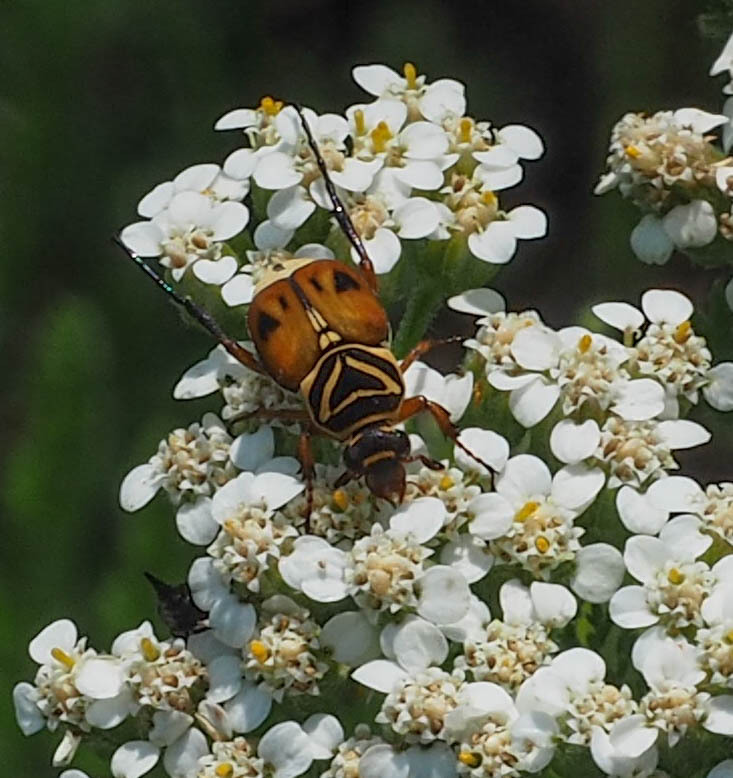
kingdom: Animalia
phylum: Arthropoda
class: Insecta
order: Coleoptera
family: Scarabaeidae
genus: Trigonopeltastes
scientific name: Trigonopeltastes delta
